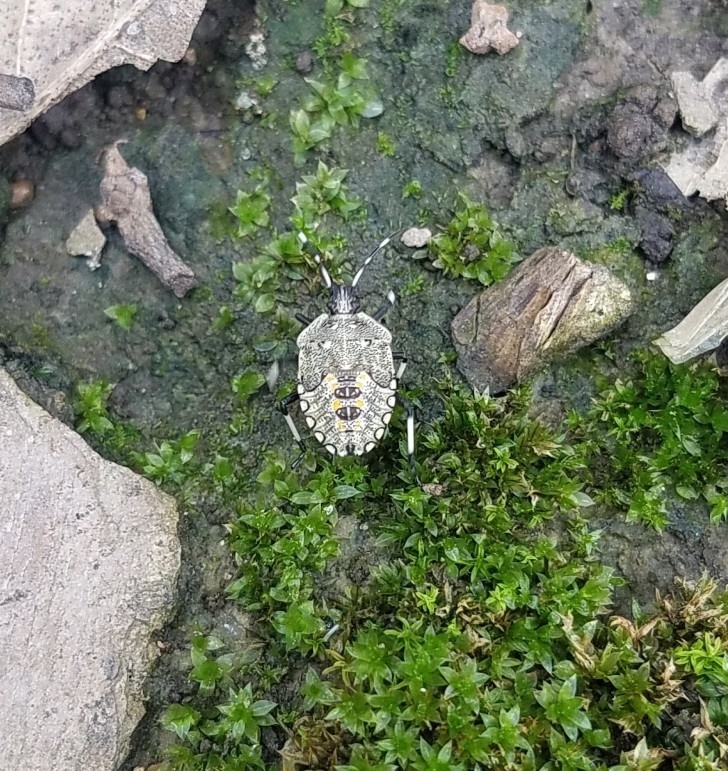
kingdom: Animalia
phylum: Arthropoda
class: Insecta
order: Hemiptera
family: Pentatomidae
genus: Proxys
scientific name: Proxys punctulatus
